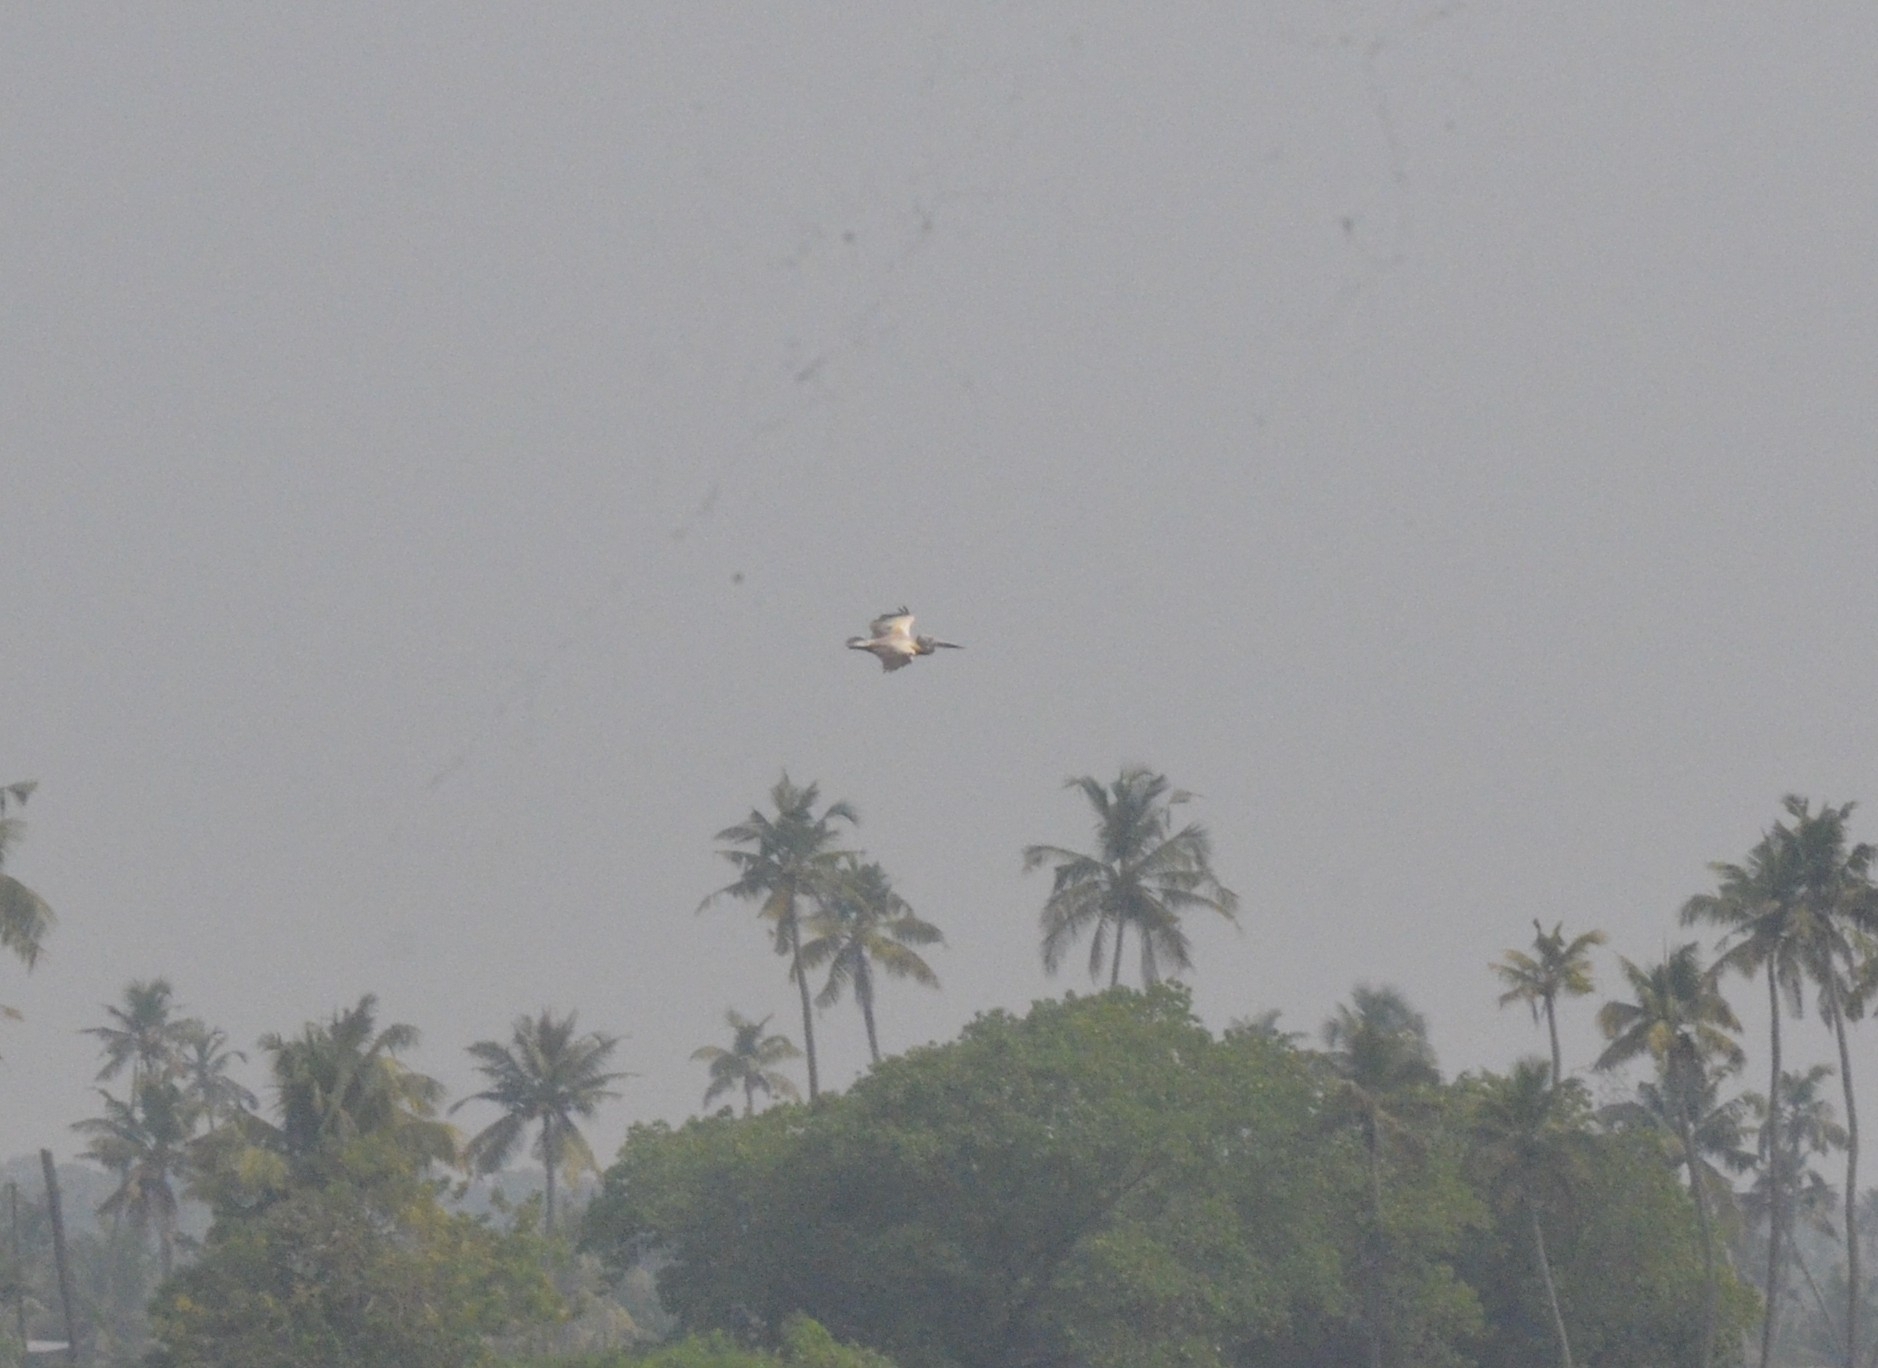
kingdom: Animalia
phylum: Chordata
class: Aves
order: Pelecaniformes
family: Pelecanidae
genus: Pelecanus
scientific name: Pelecanus philippensis
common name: Spot-billed pelican
